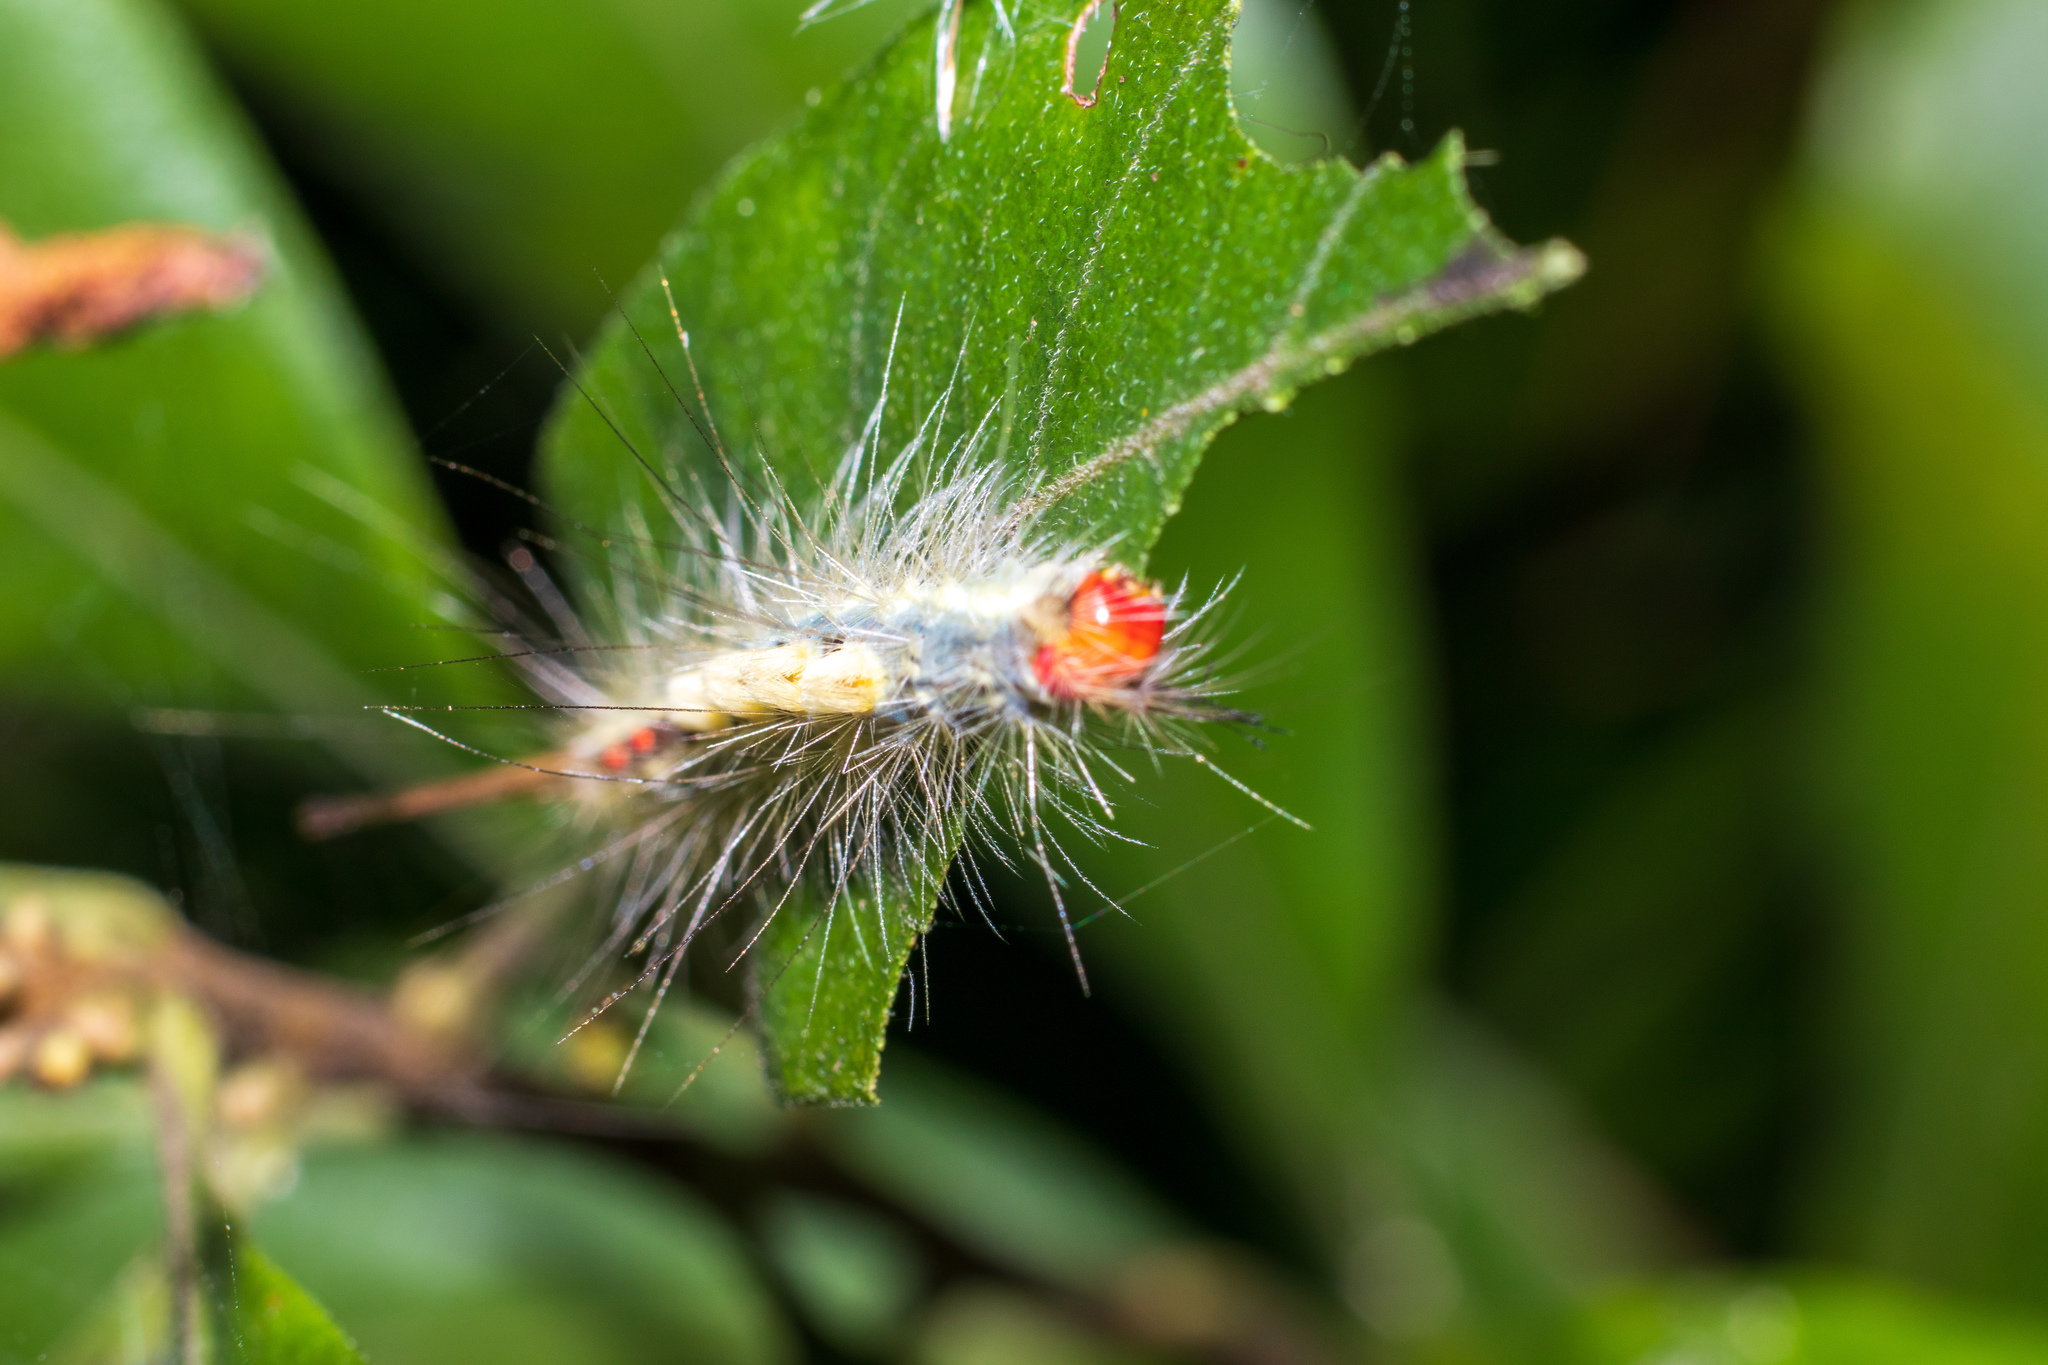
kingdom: Animalia
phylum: Arthropoda
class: Insecta
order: Lepidoptera
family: Erebidae
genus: Orgyia
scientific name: Orgyia leucostigma
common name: White-marked tussock moth
